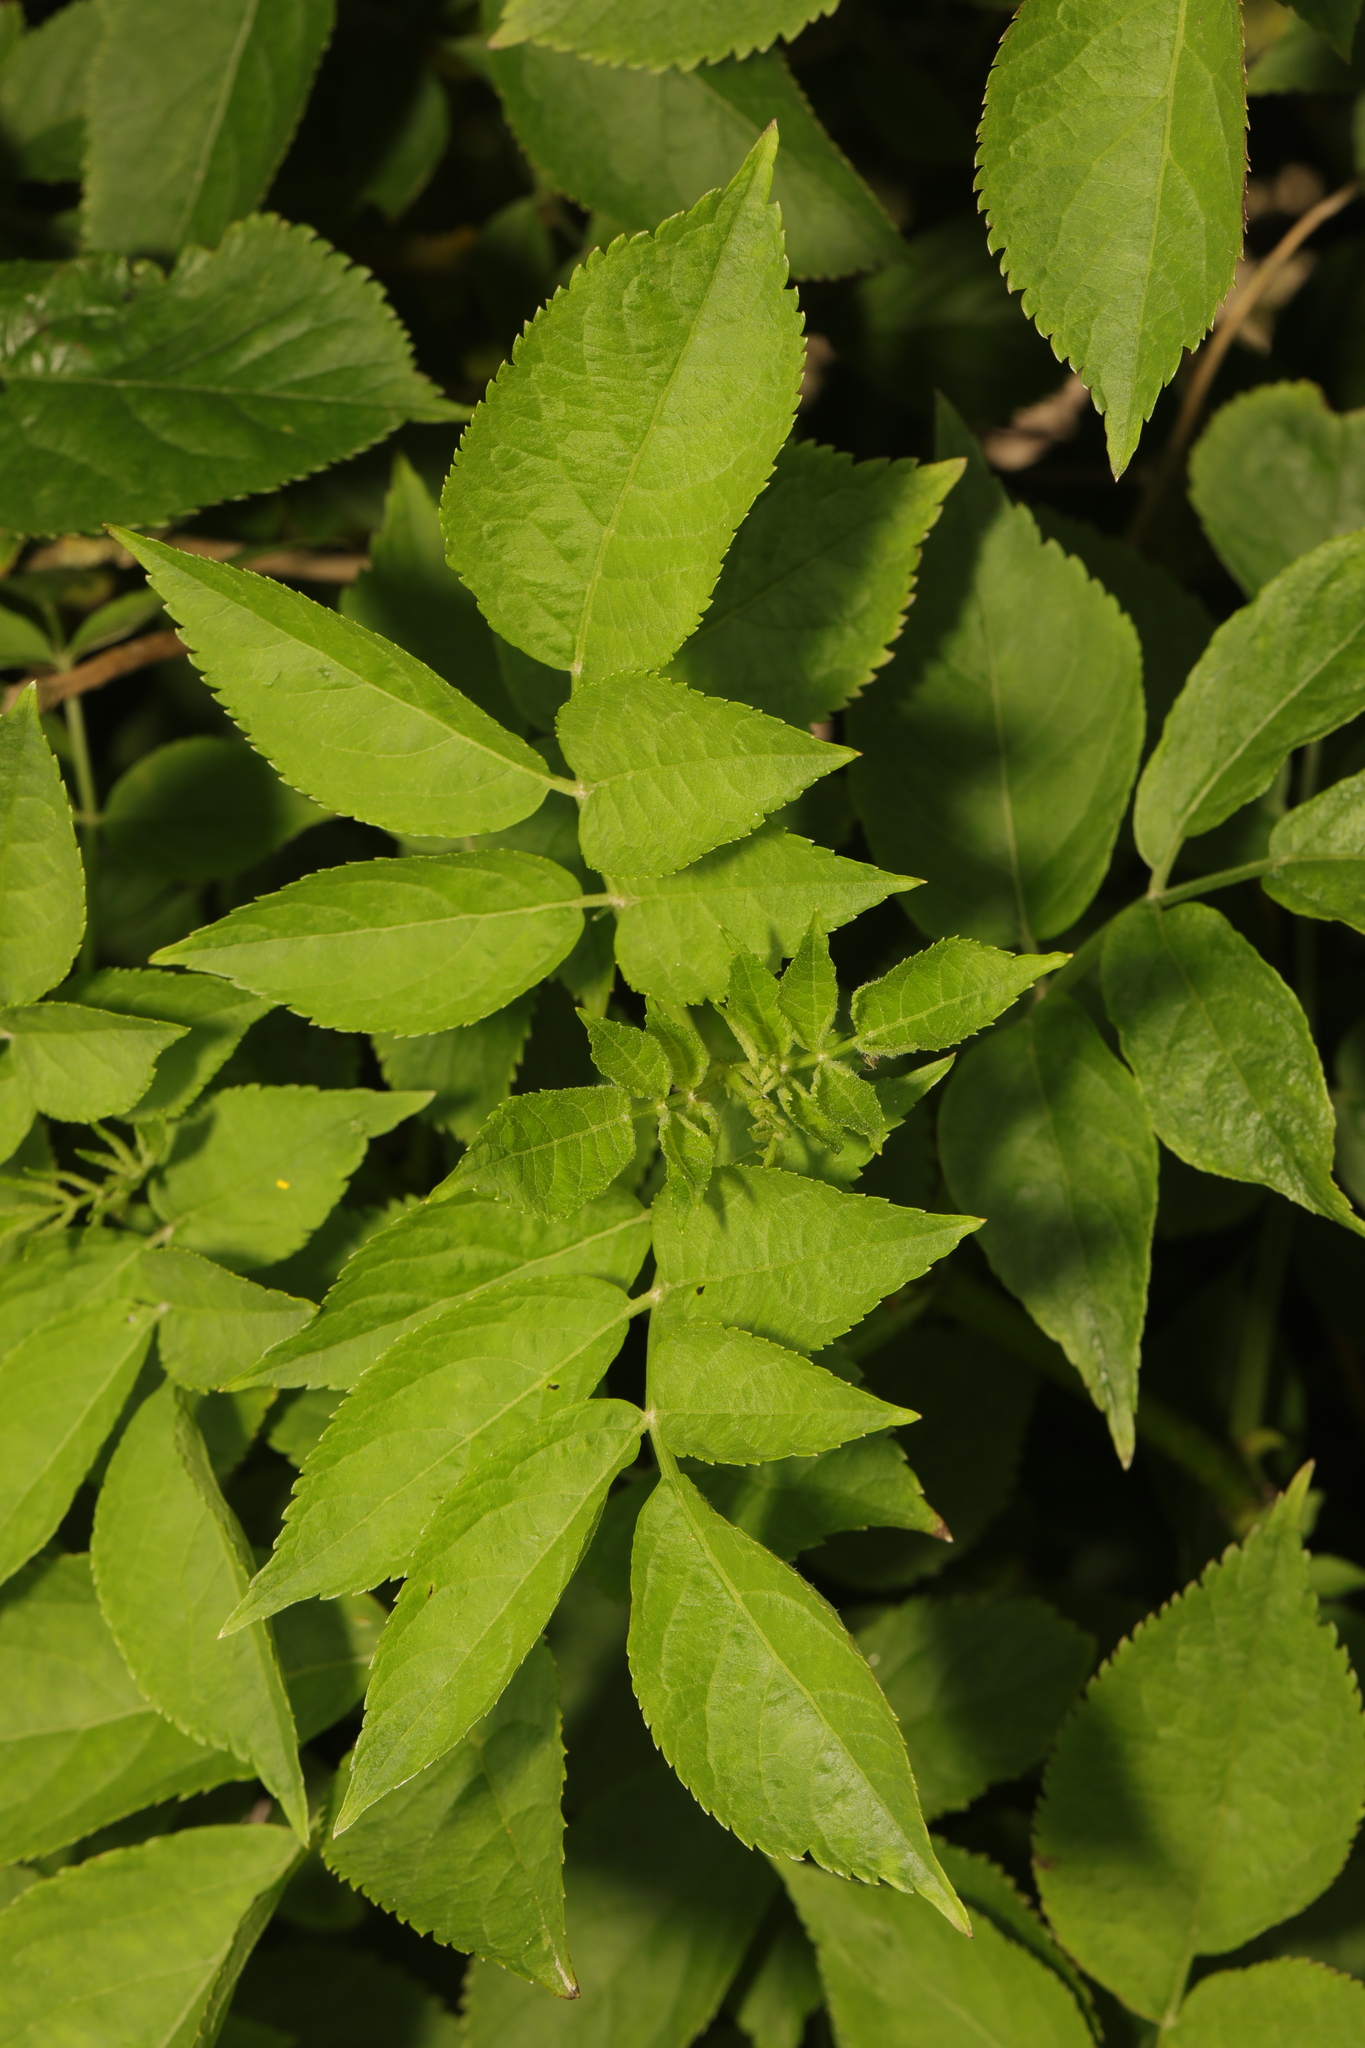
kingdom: Plantae
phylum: Tracheophyta
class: Magnoliopsida
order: Dipsacales
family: Viburnaceae
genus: Sambucus
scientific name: Sambucus nigra
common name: Elder
